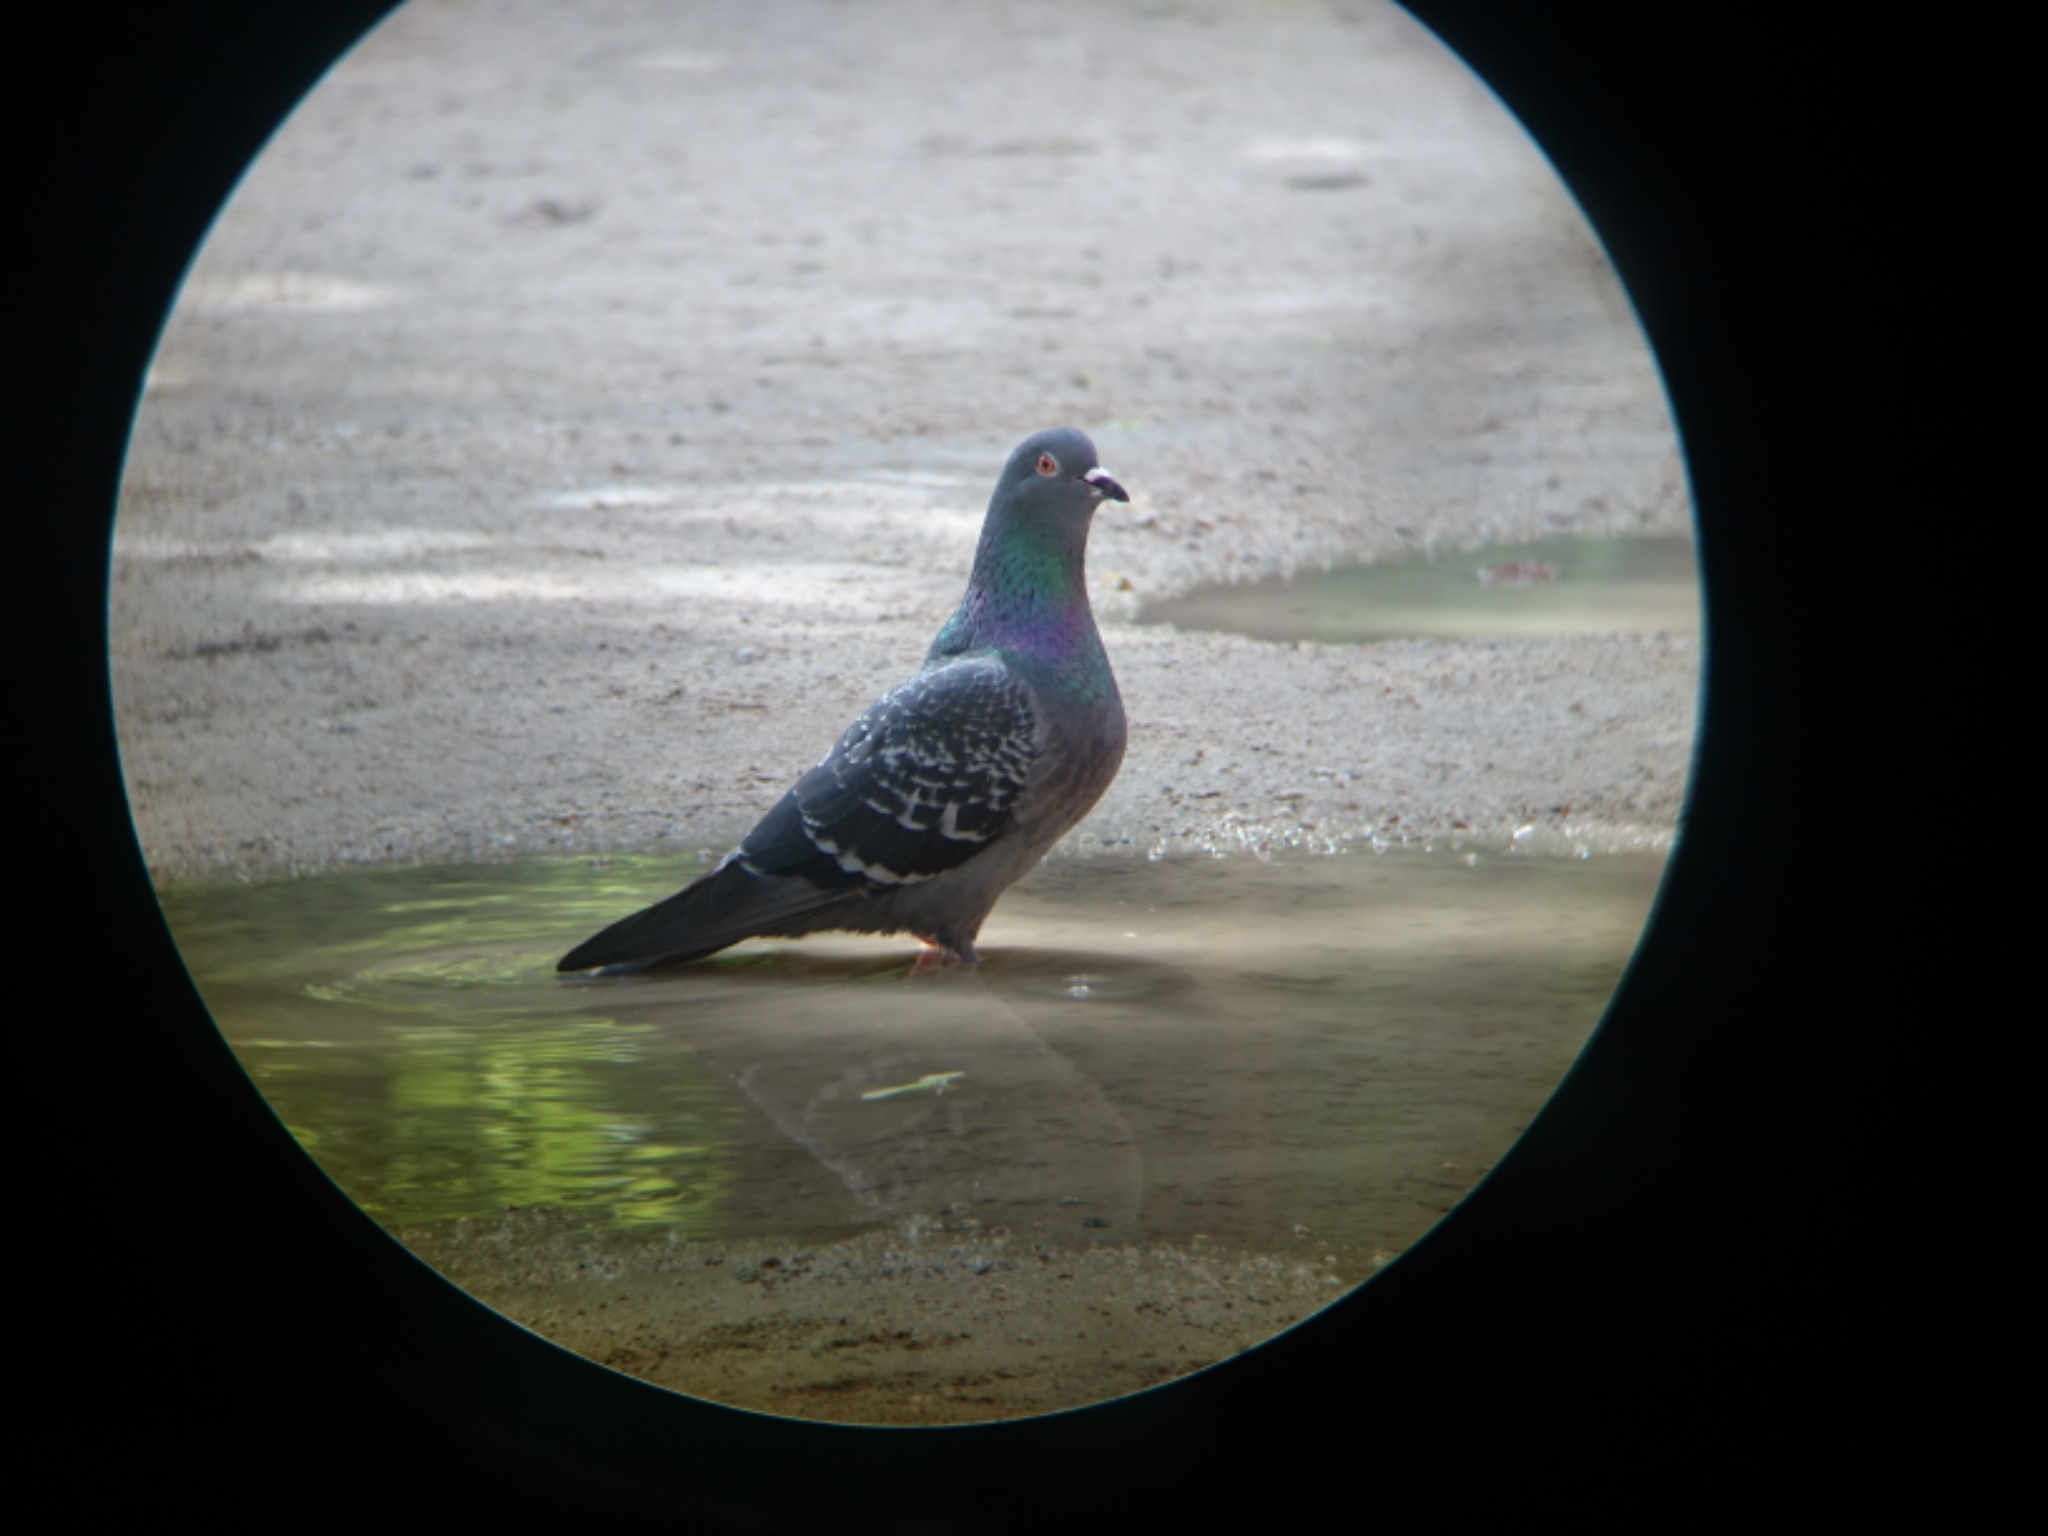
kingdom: Animalia
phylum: Chordata
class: Aves
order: Columbiformes
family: Columbidae
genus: Columba
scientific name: Columba livia
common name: Rock pigeon
